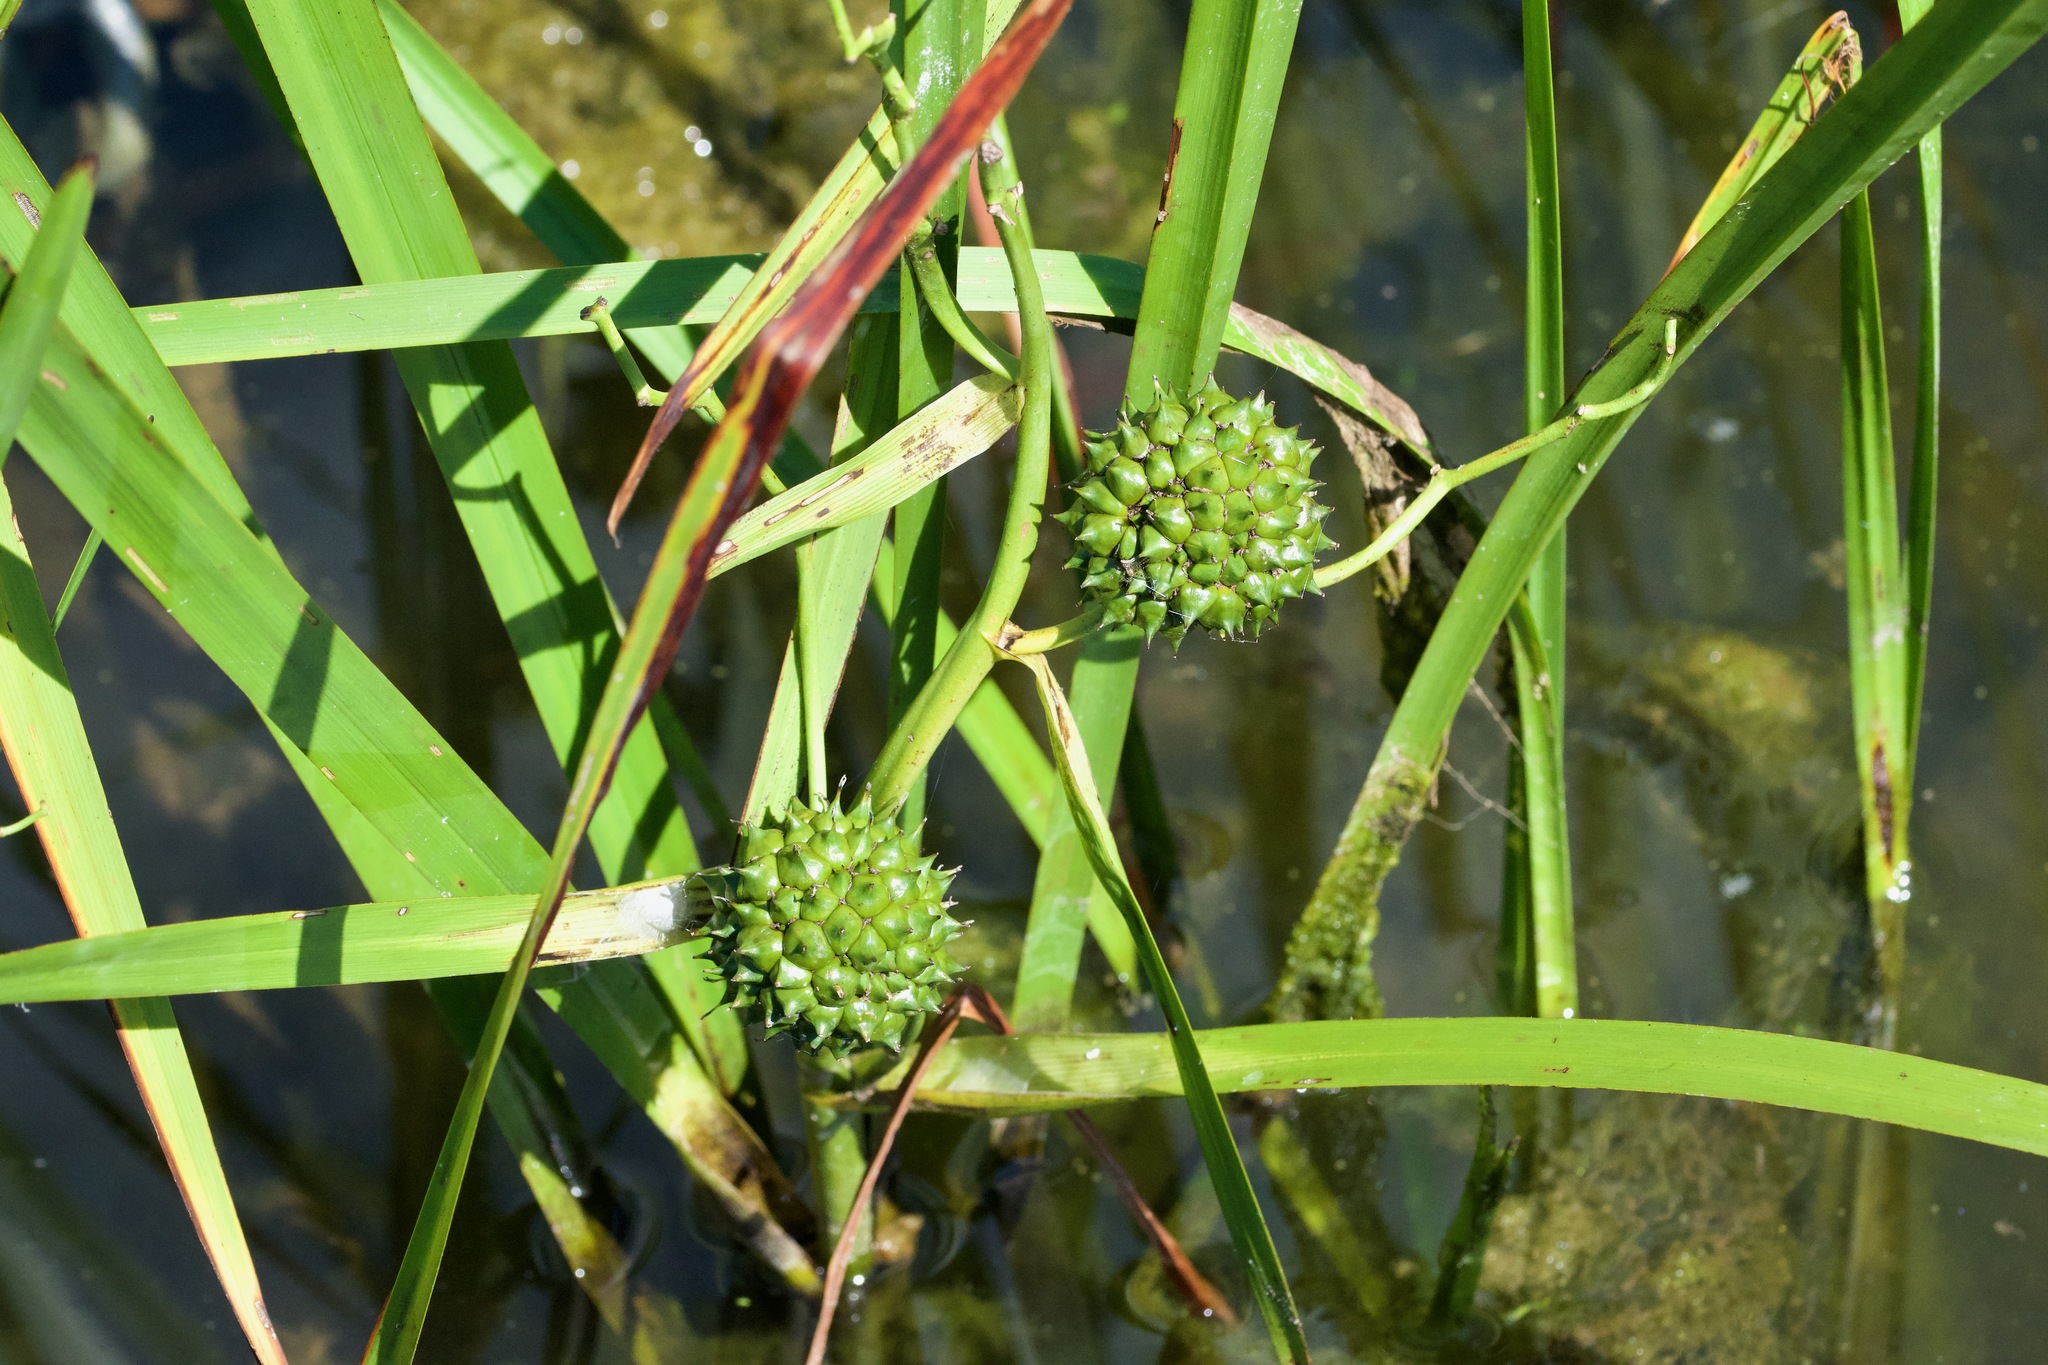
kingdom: Plantae
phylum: Tracheophyta
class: Liliopsida
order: Poales
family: Typhaceae
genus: Sparganium
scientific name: Sparganium eurycarpum
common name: Broad-fruited burreed
